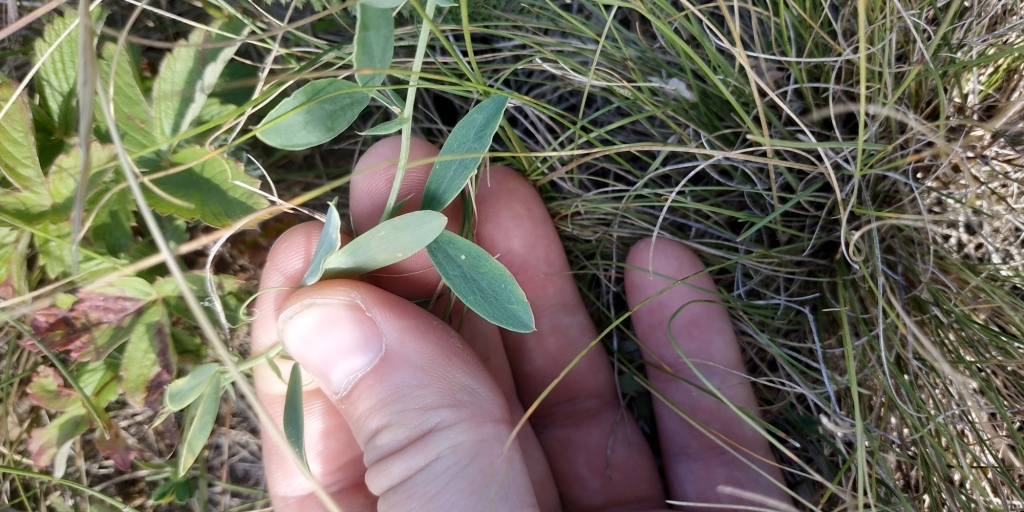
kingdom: Plantae
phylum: Tracheophyta
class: Magnoliopsida
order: Fabales
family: Fabaceae
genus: Lathyrus
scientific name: Lathyrus tuberosus
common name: Tuberous pea
